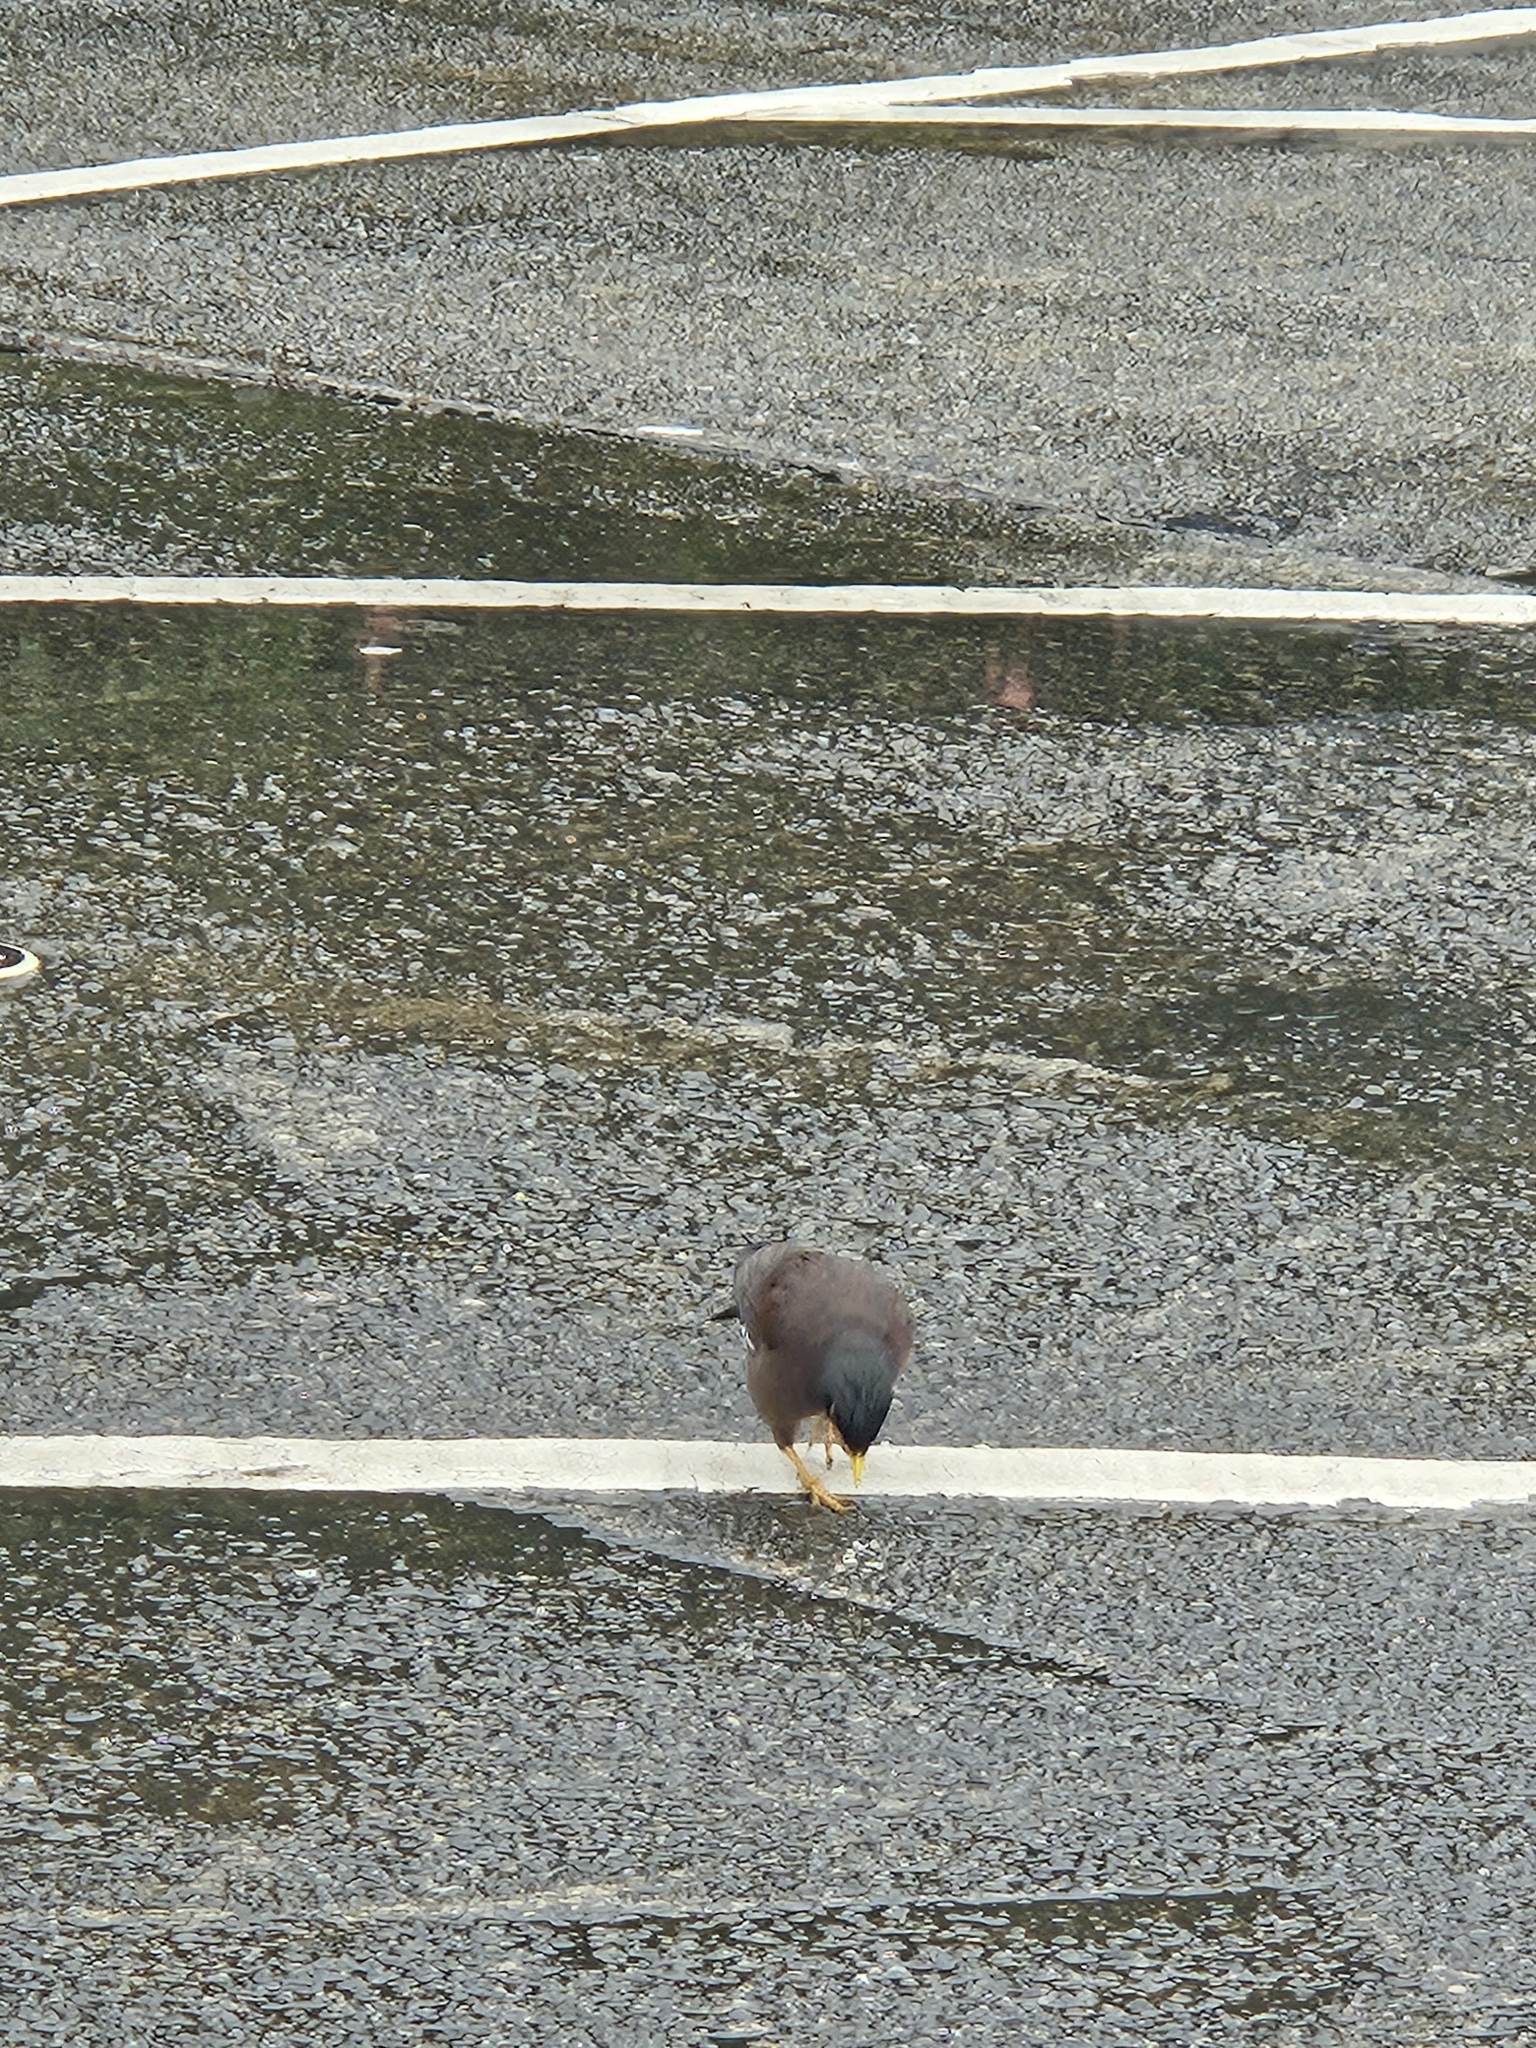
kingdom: Animalia
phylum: Chordata
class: Aves
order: Passeriformes
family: Sturnidae
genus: Acridotheres
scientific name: Acridotheres tristis
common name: Common myna
